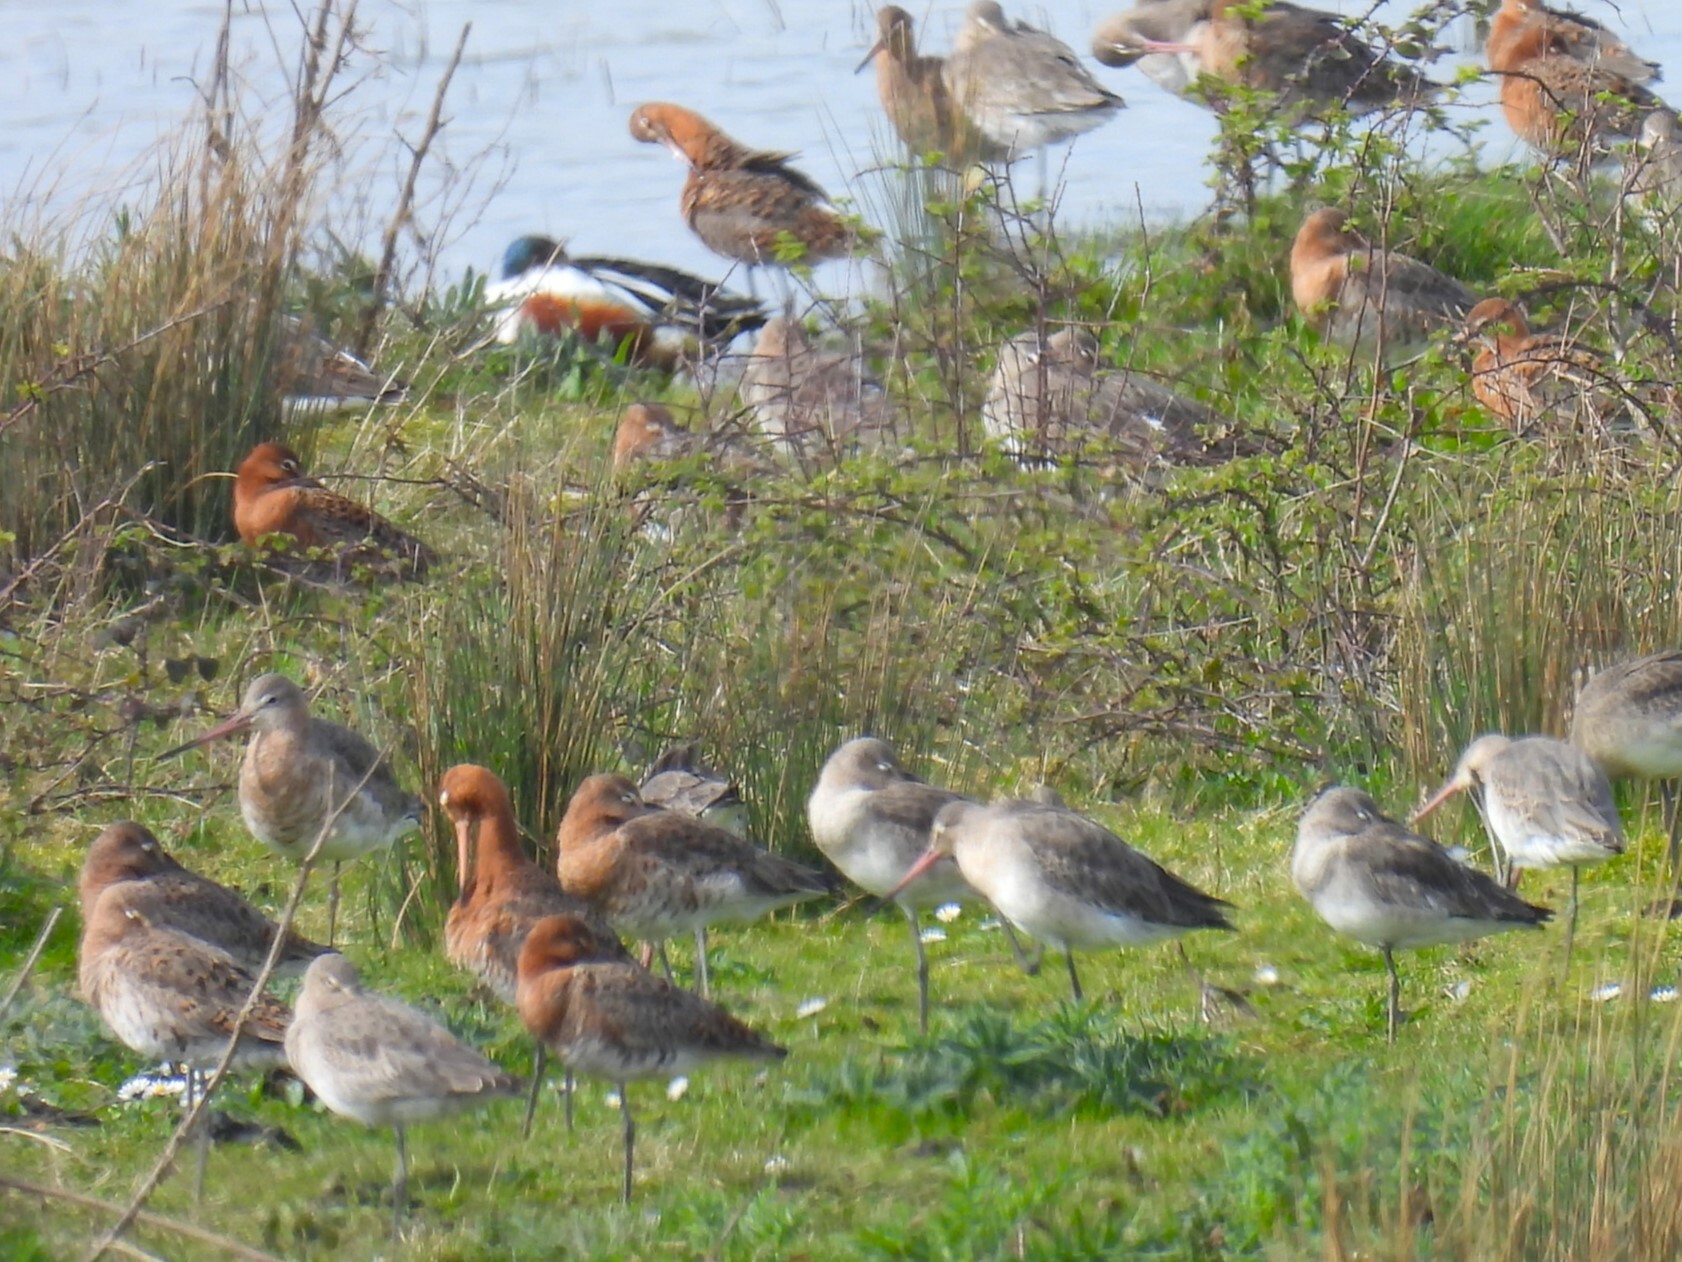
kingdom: Animalia
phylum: Chordata
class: Aves
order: Charadriiformes
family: Scolopacidae
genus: Limosa
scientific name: Limosa limosa
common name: Black-tailed godwit
